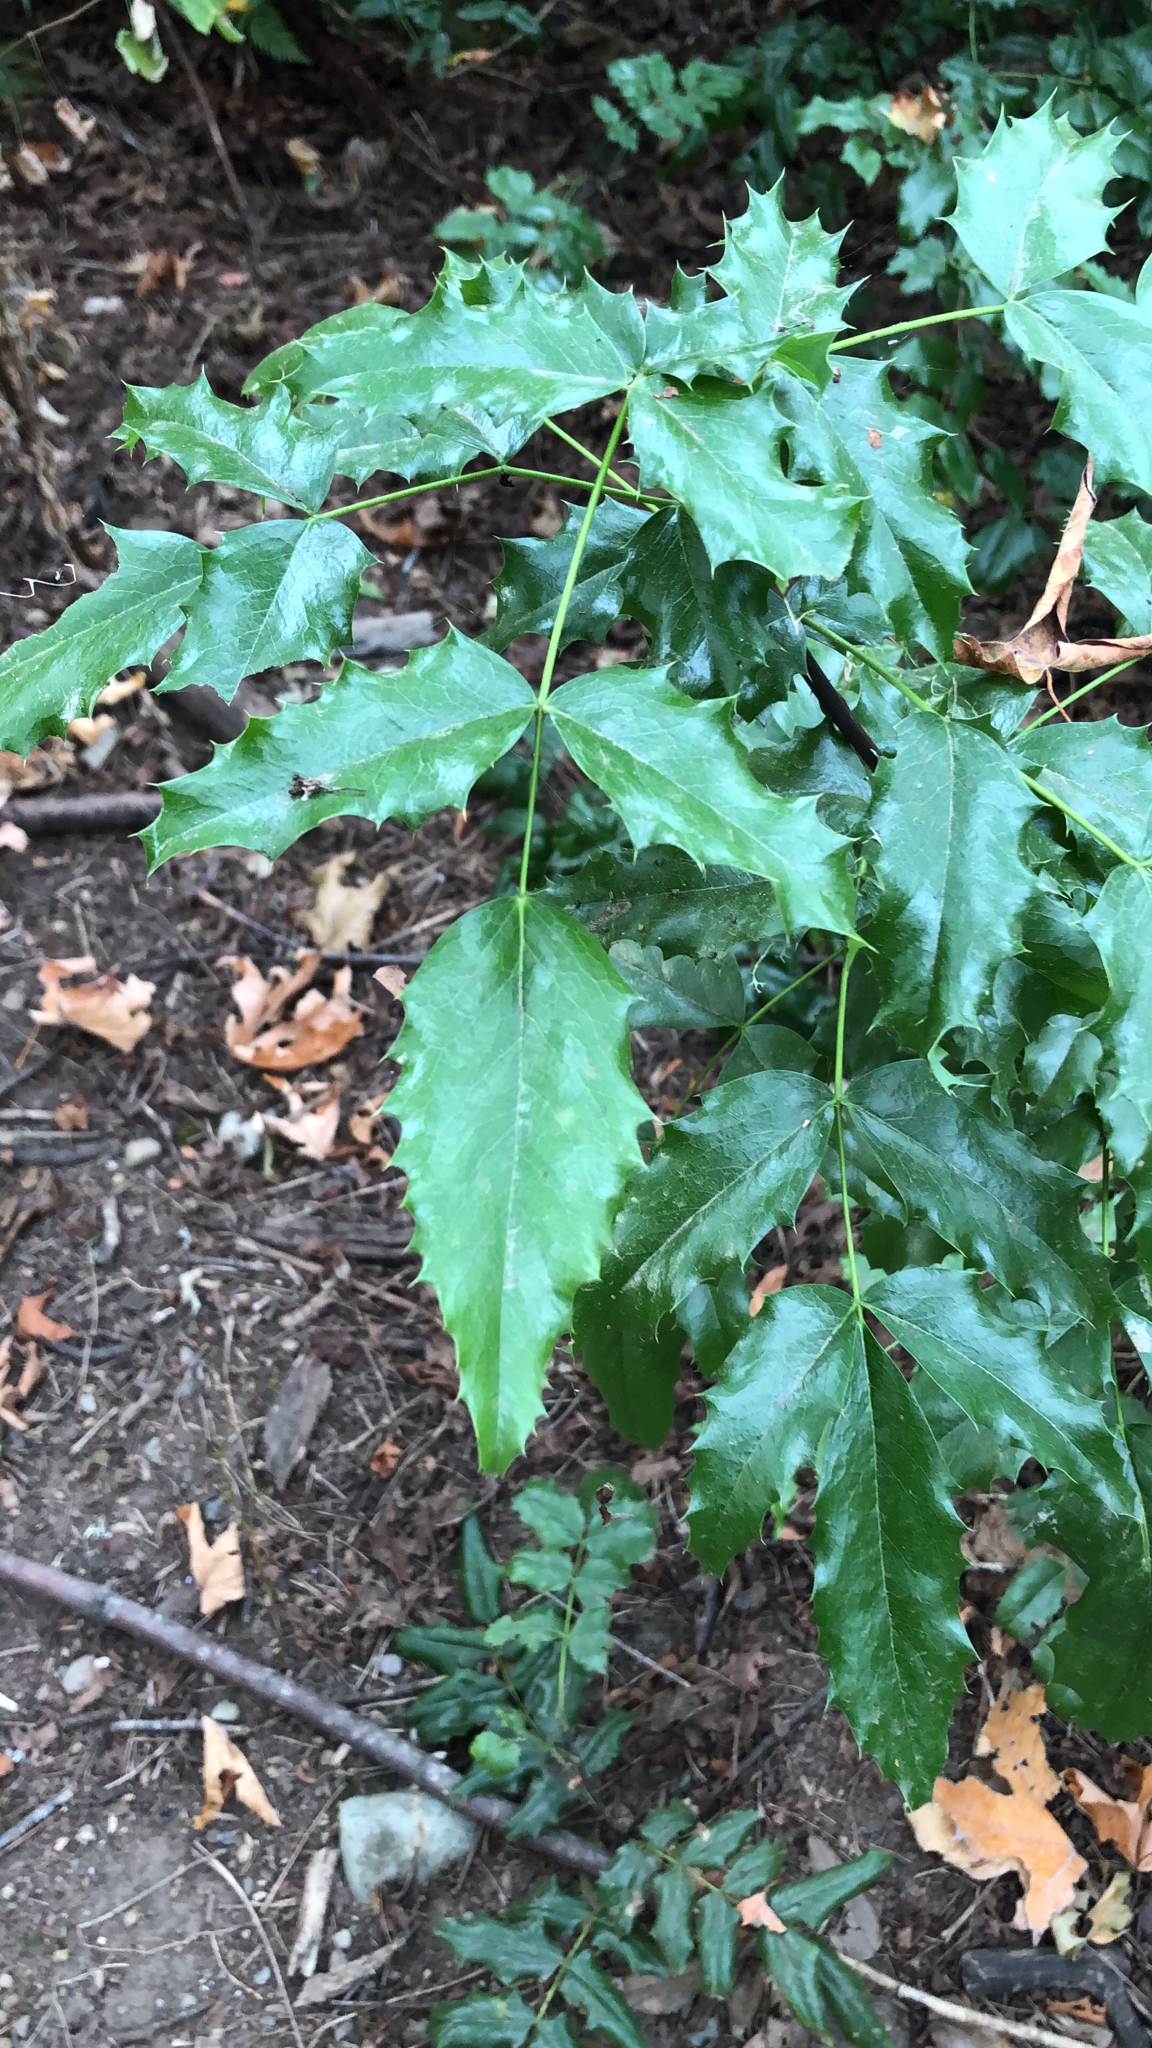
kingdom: Plantae
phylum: Tracheophyta
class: Magnoliopsida
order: Ranunculales
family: Berberidaceae
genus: Mahonia
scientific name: Mahonia aquifolium
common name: Oregon-grape
